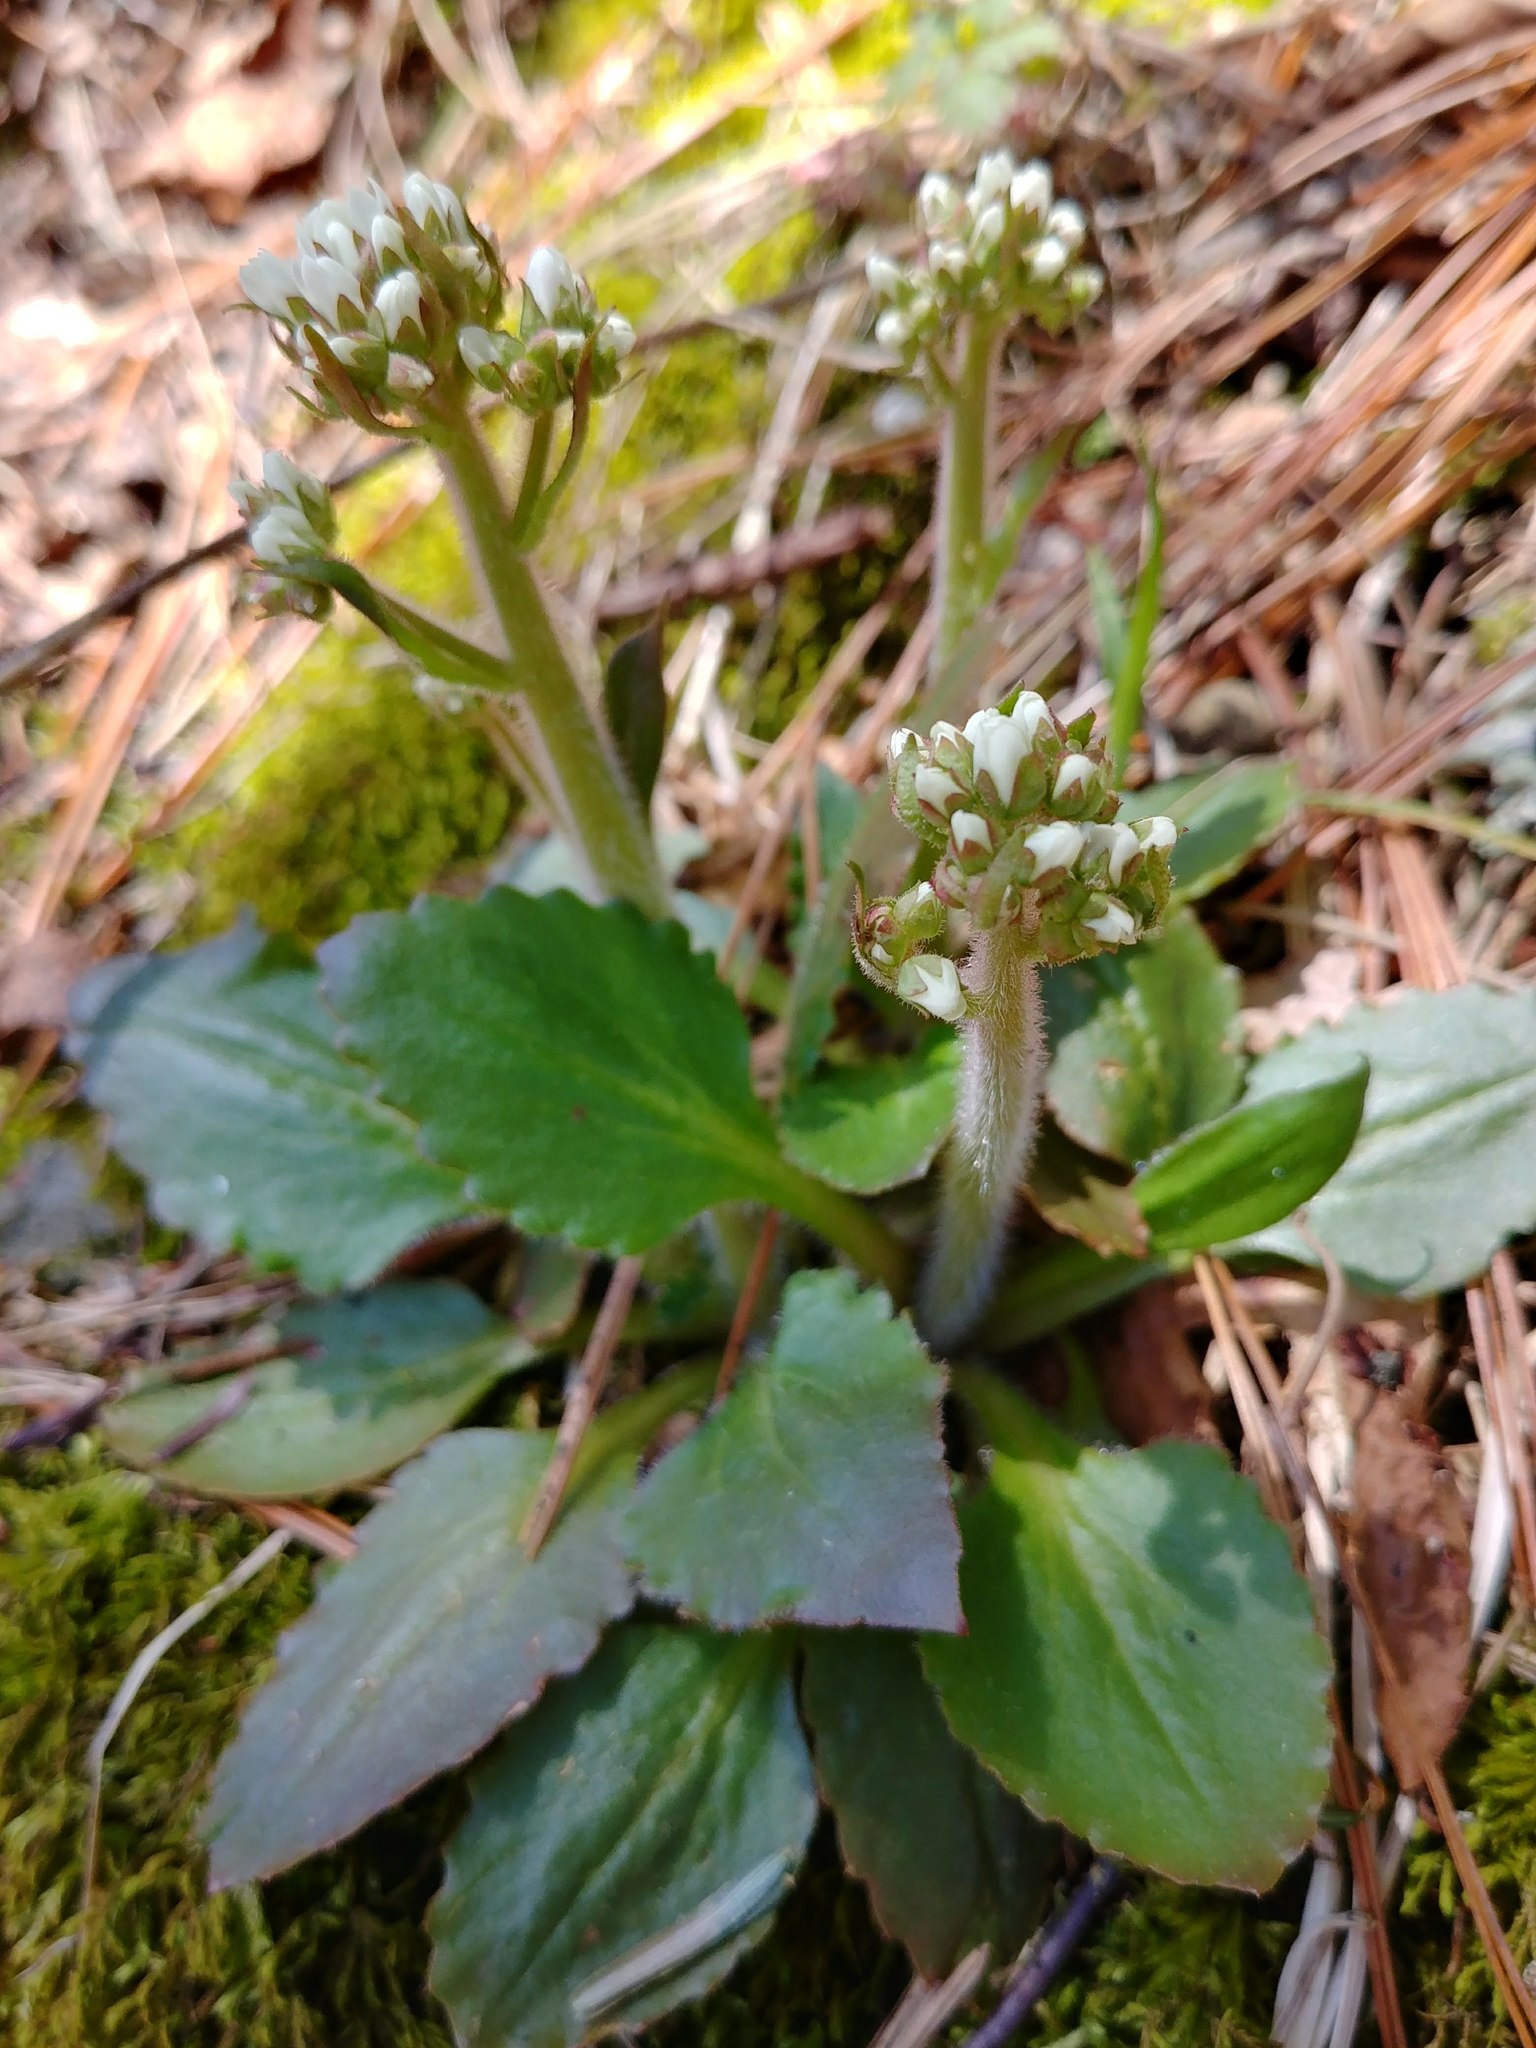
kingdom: Plantae
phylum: Tracheophyta
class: Magnoliopsida
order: Saxifragales
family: Saxifragaceae
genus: Micranthes
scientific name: Micranthes virginiensis
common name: Early saxifrage
